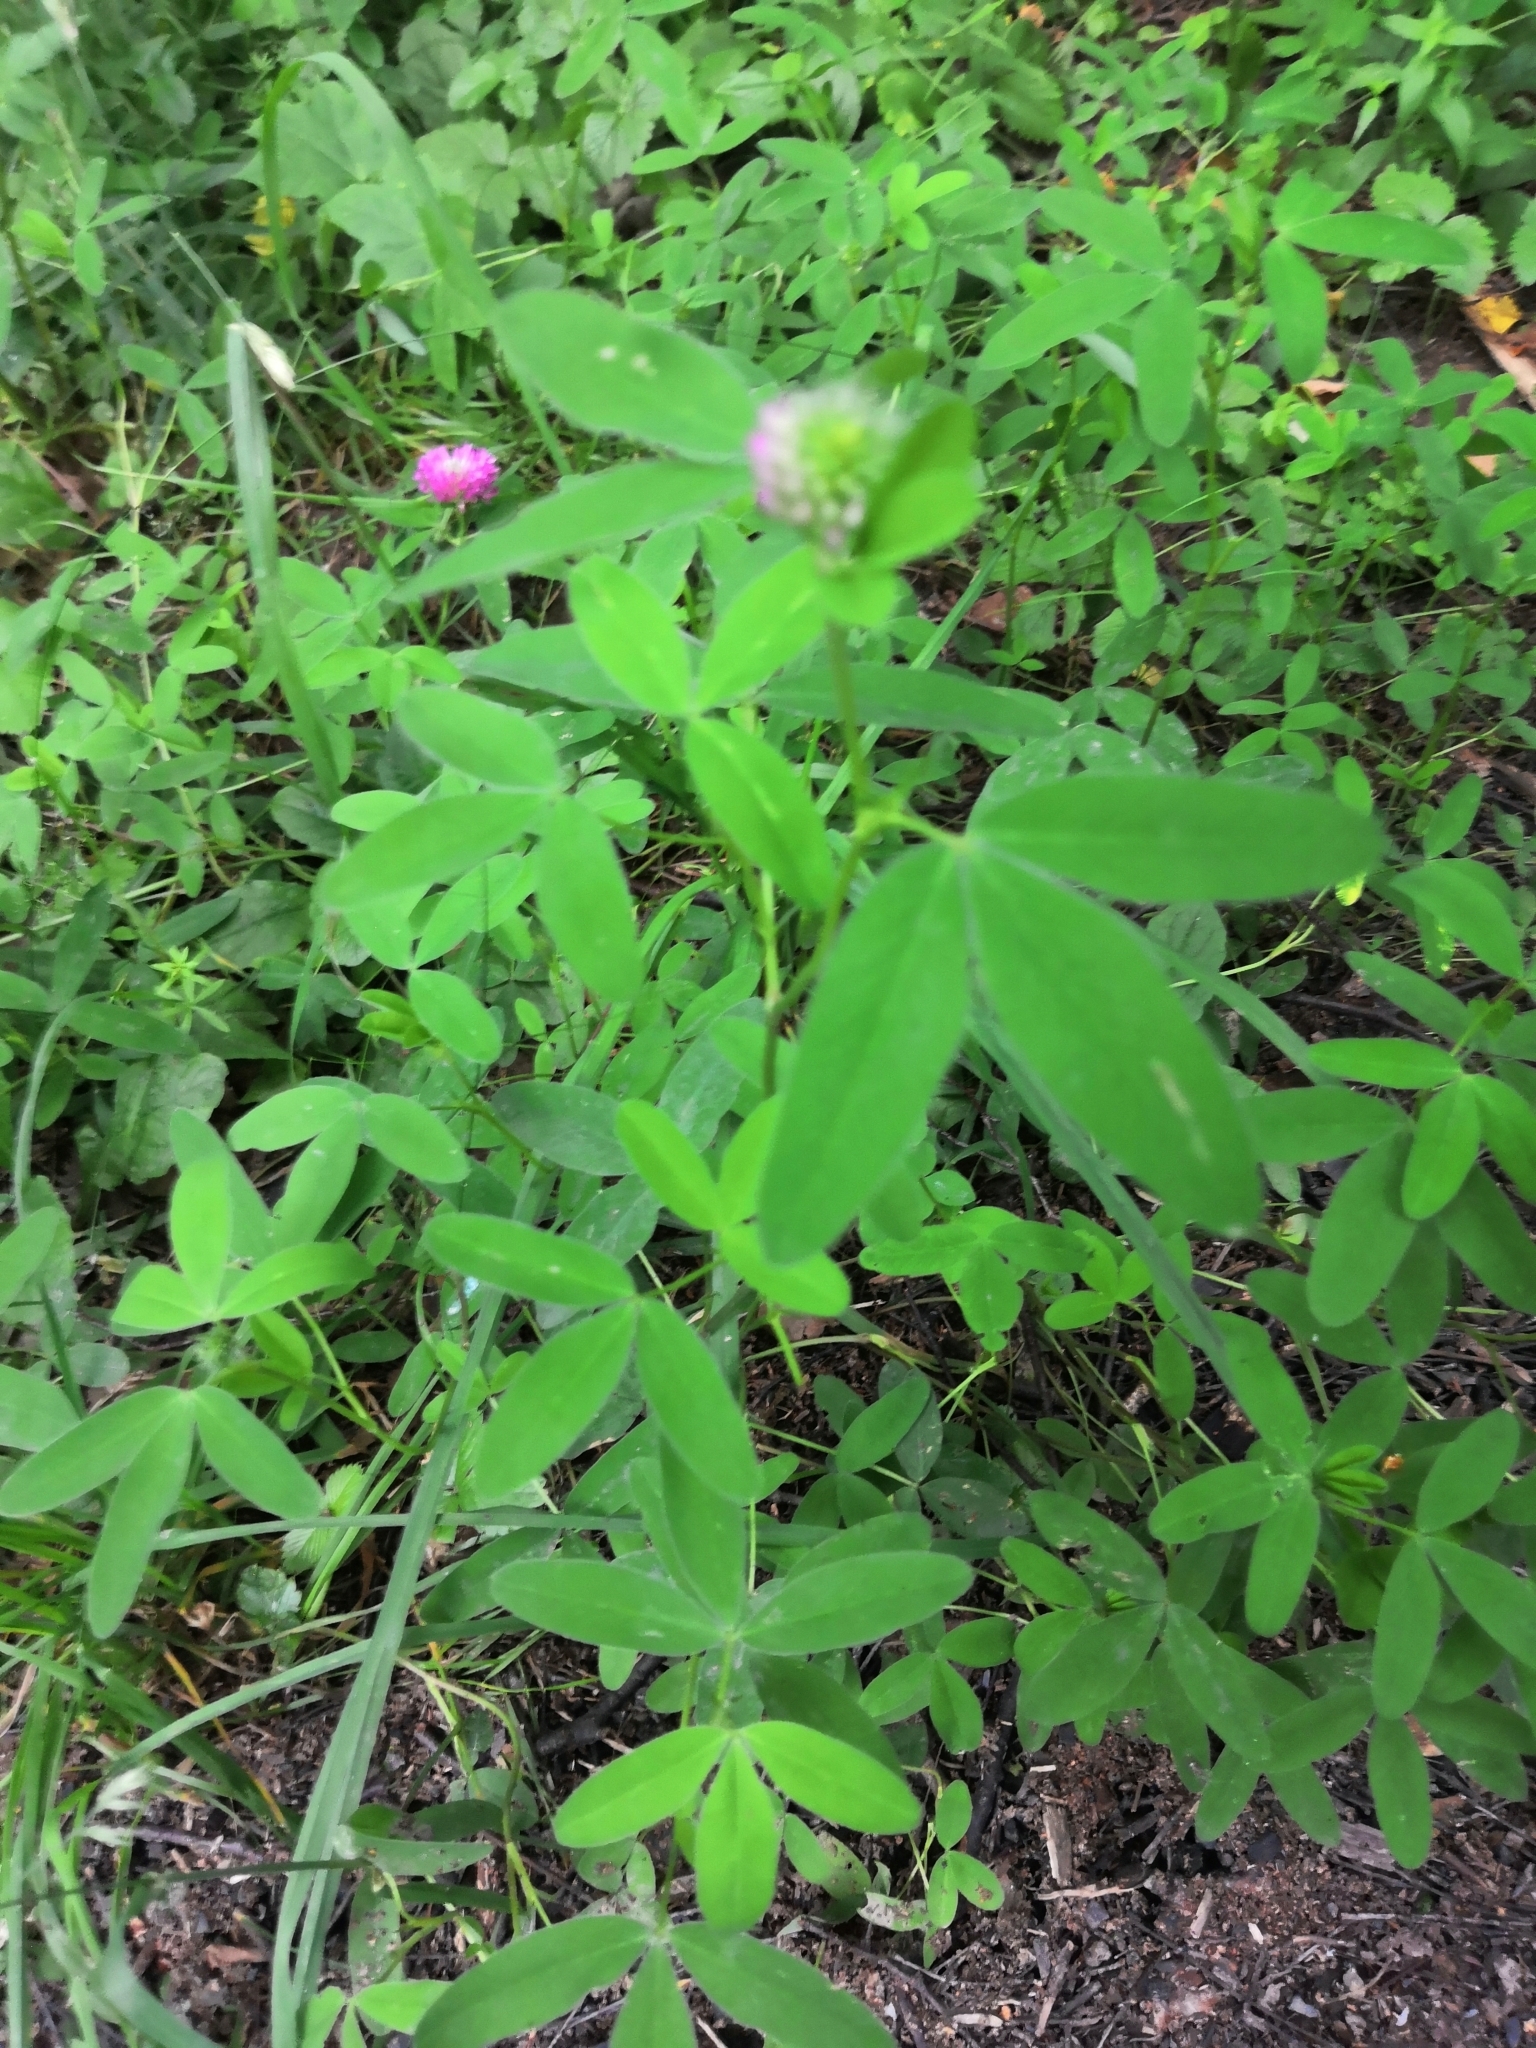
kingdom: Plantae
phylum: Tracheophyta
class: Magnoliopsida
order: Fabales
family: Fabaceae
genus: Trifolium
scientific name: Trifolium medium
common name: Zigzag clover
